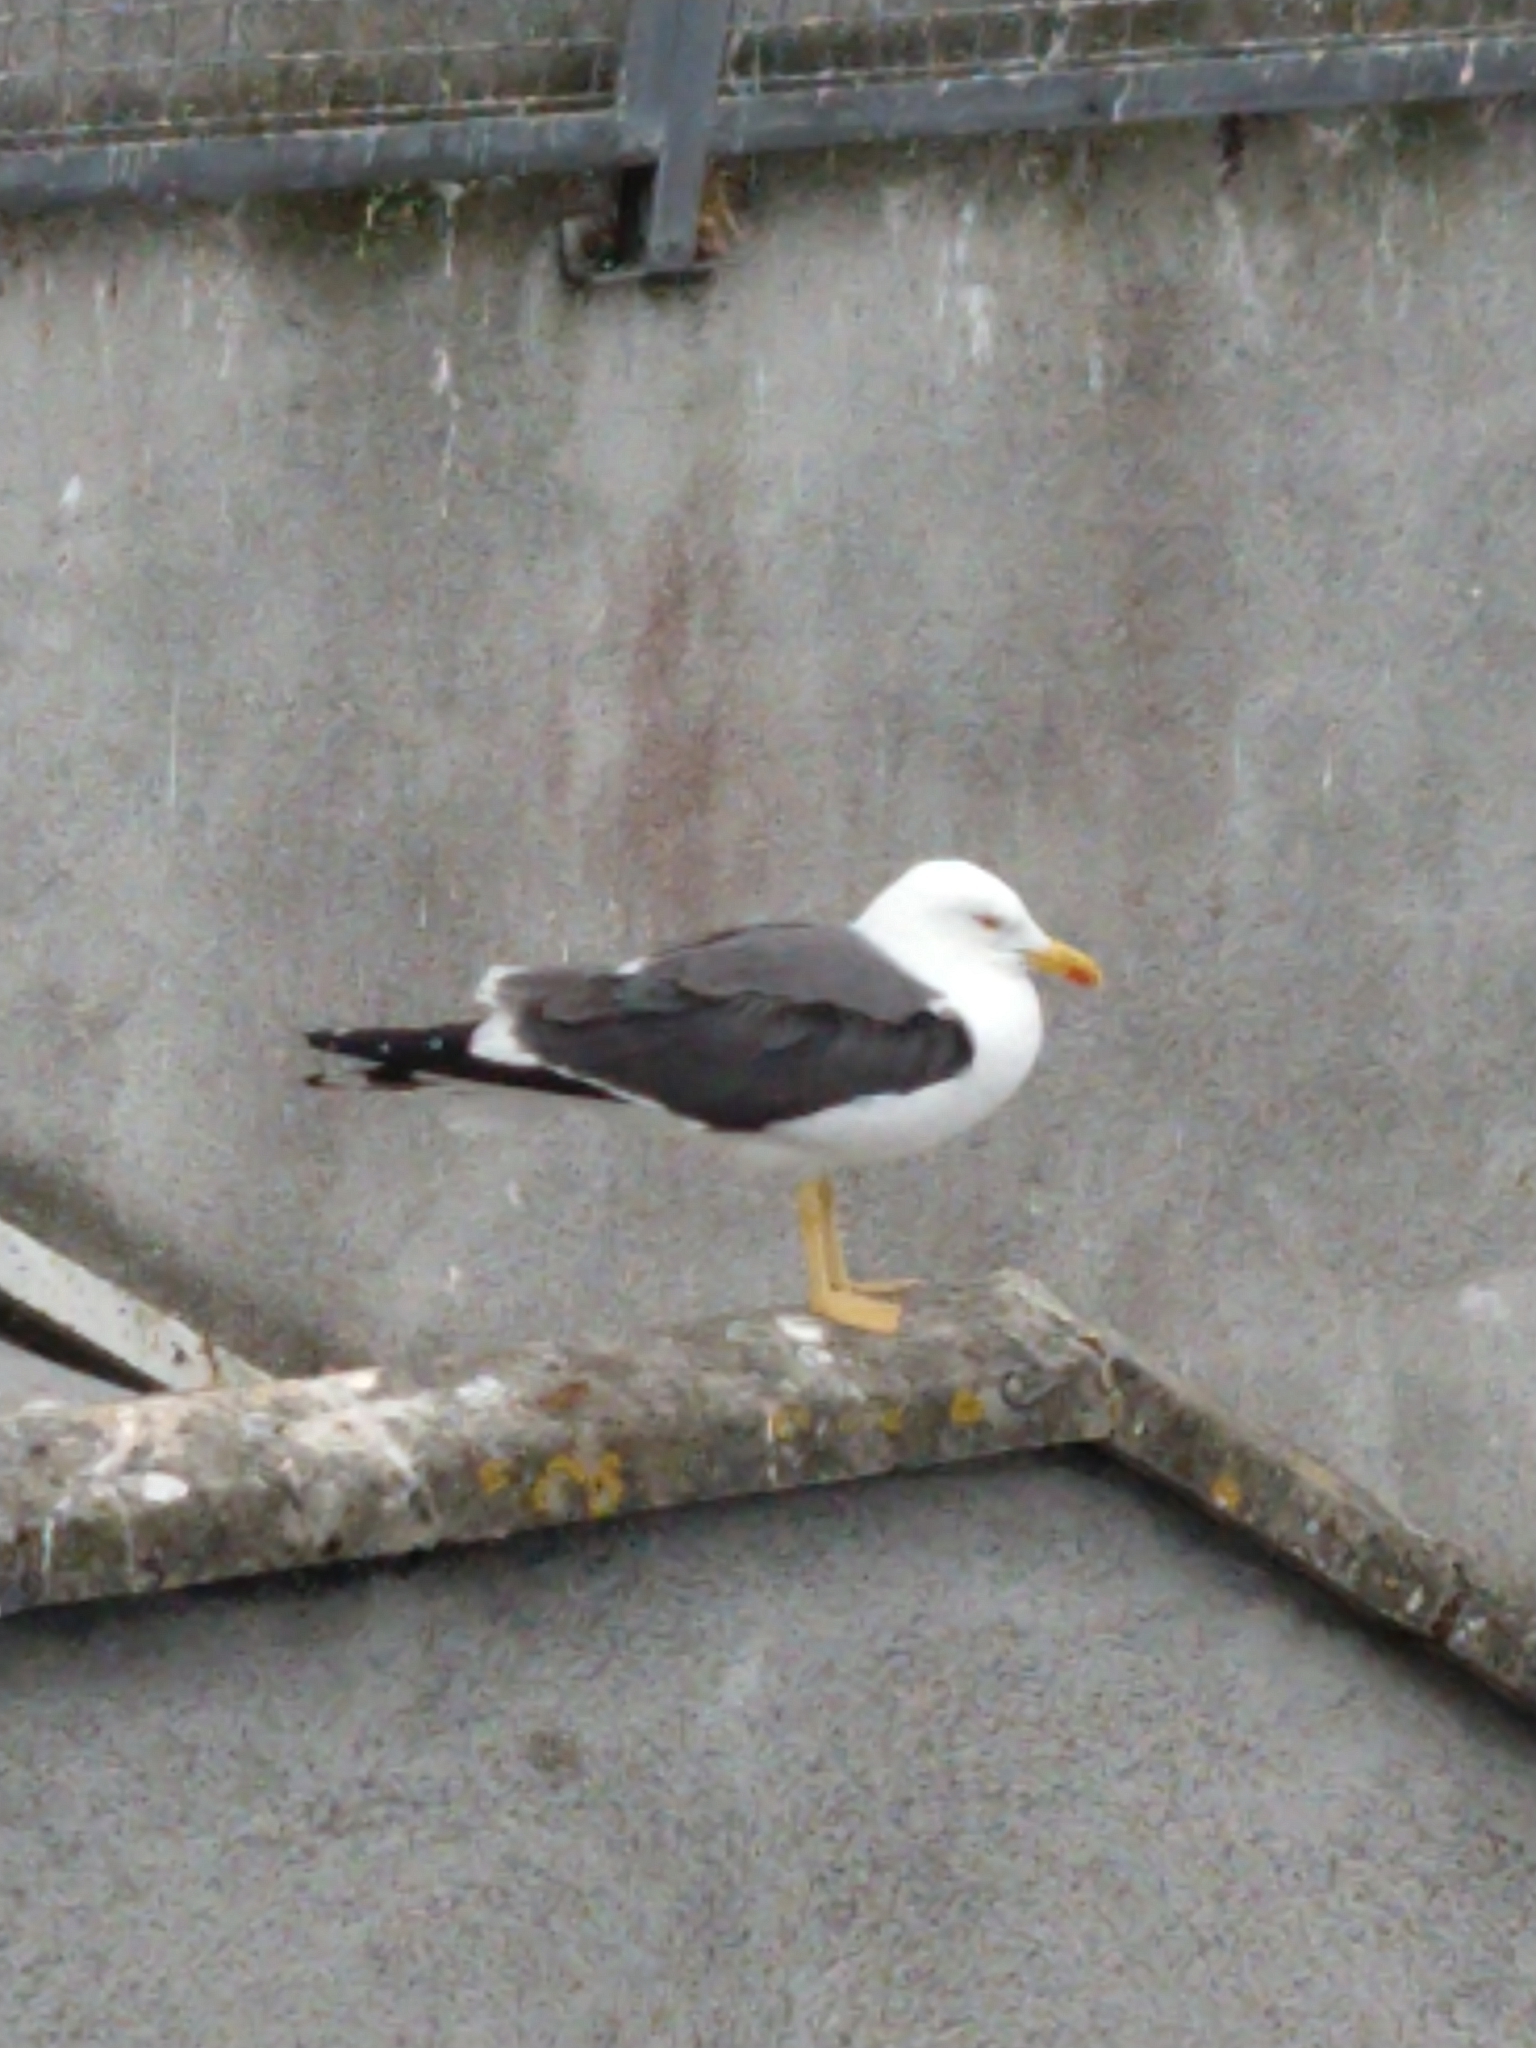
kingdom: Animalia
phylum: Chordata
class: Aves
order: Charadriiformes
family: Laridae
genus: Larus
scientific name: Larus fuscus
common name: Lesser black-backed gull
